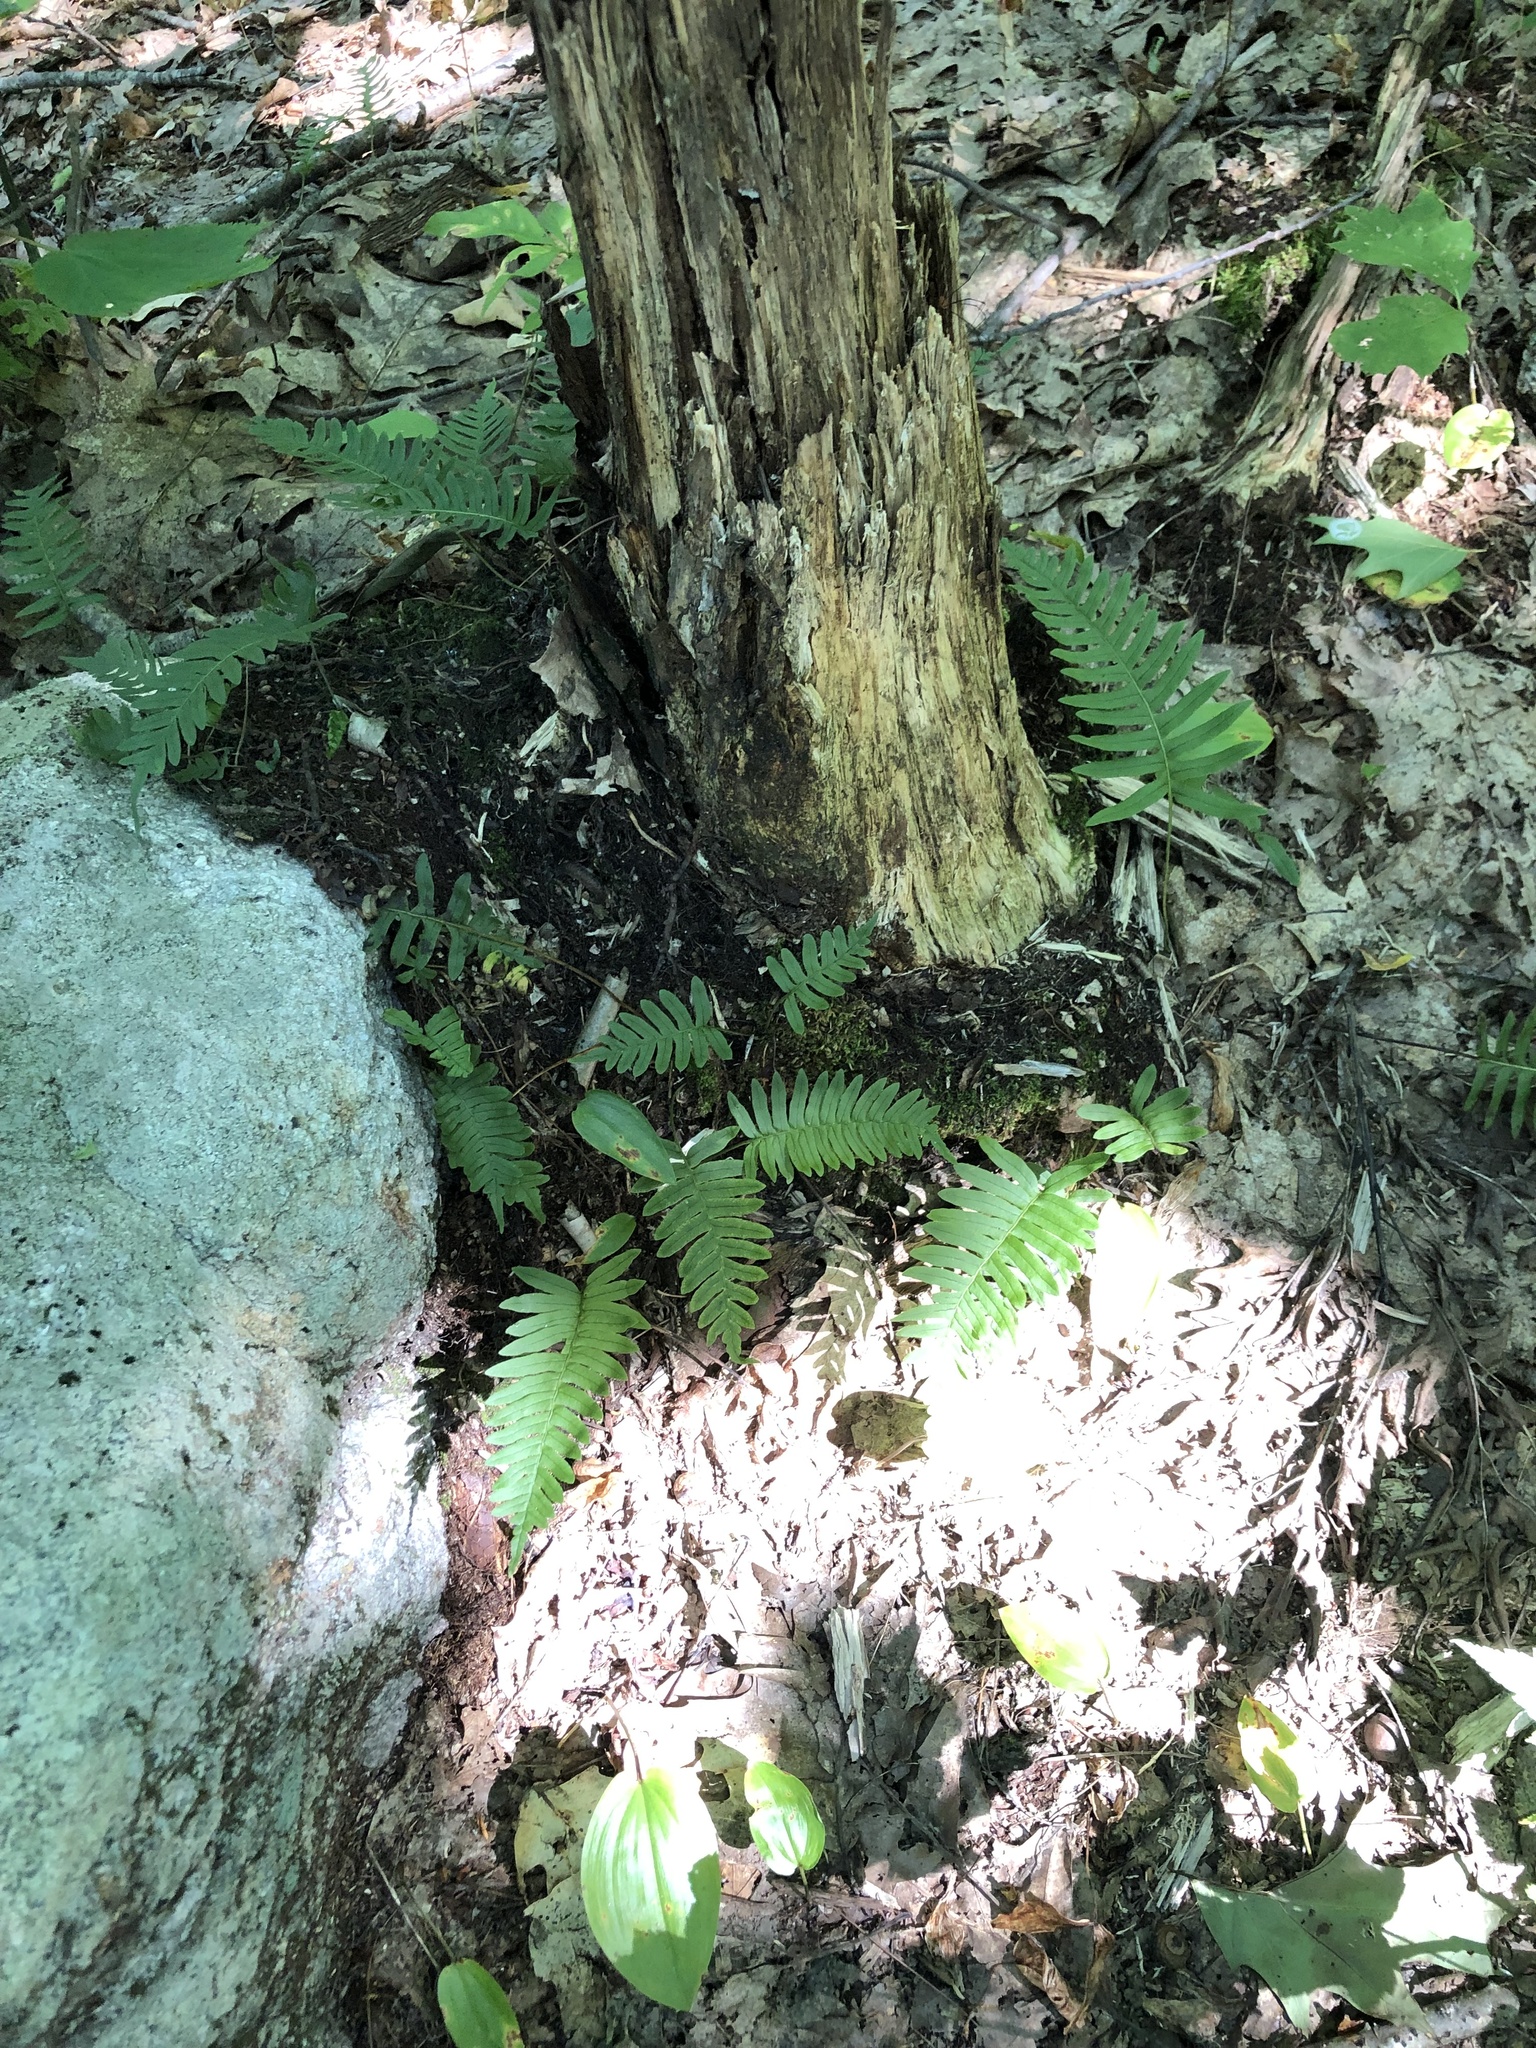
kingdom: Plantae
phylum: Tracheophyta
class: Polypodiopsida
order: Polypodiales
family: Polypodiaceae
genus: Polypodium
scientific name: Polypodium virginianum
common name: American wall fern
